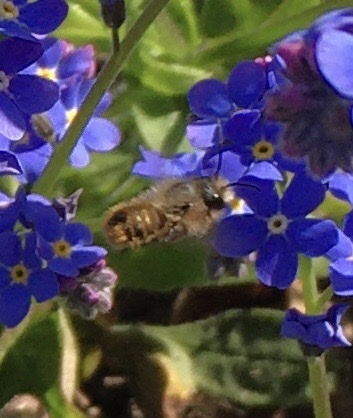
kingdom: Animalia
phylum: Arthropoda
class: Insecta
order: Hymenoptera
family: Megachilidae
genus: Osmia
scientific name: Osmia bicornis
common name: Red mason bee
